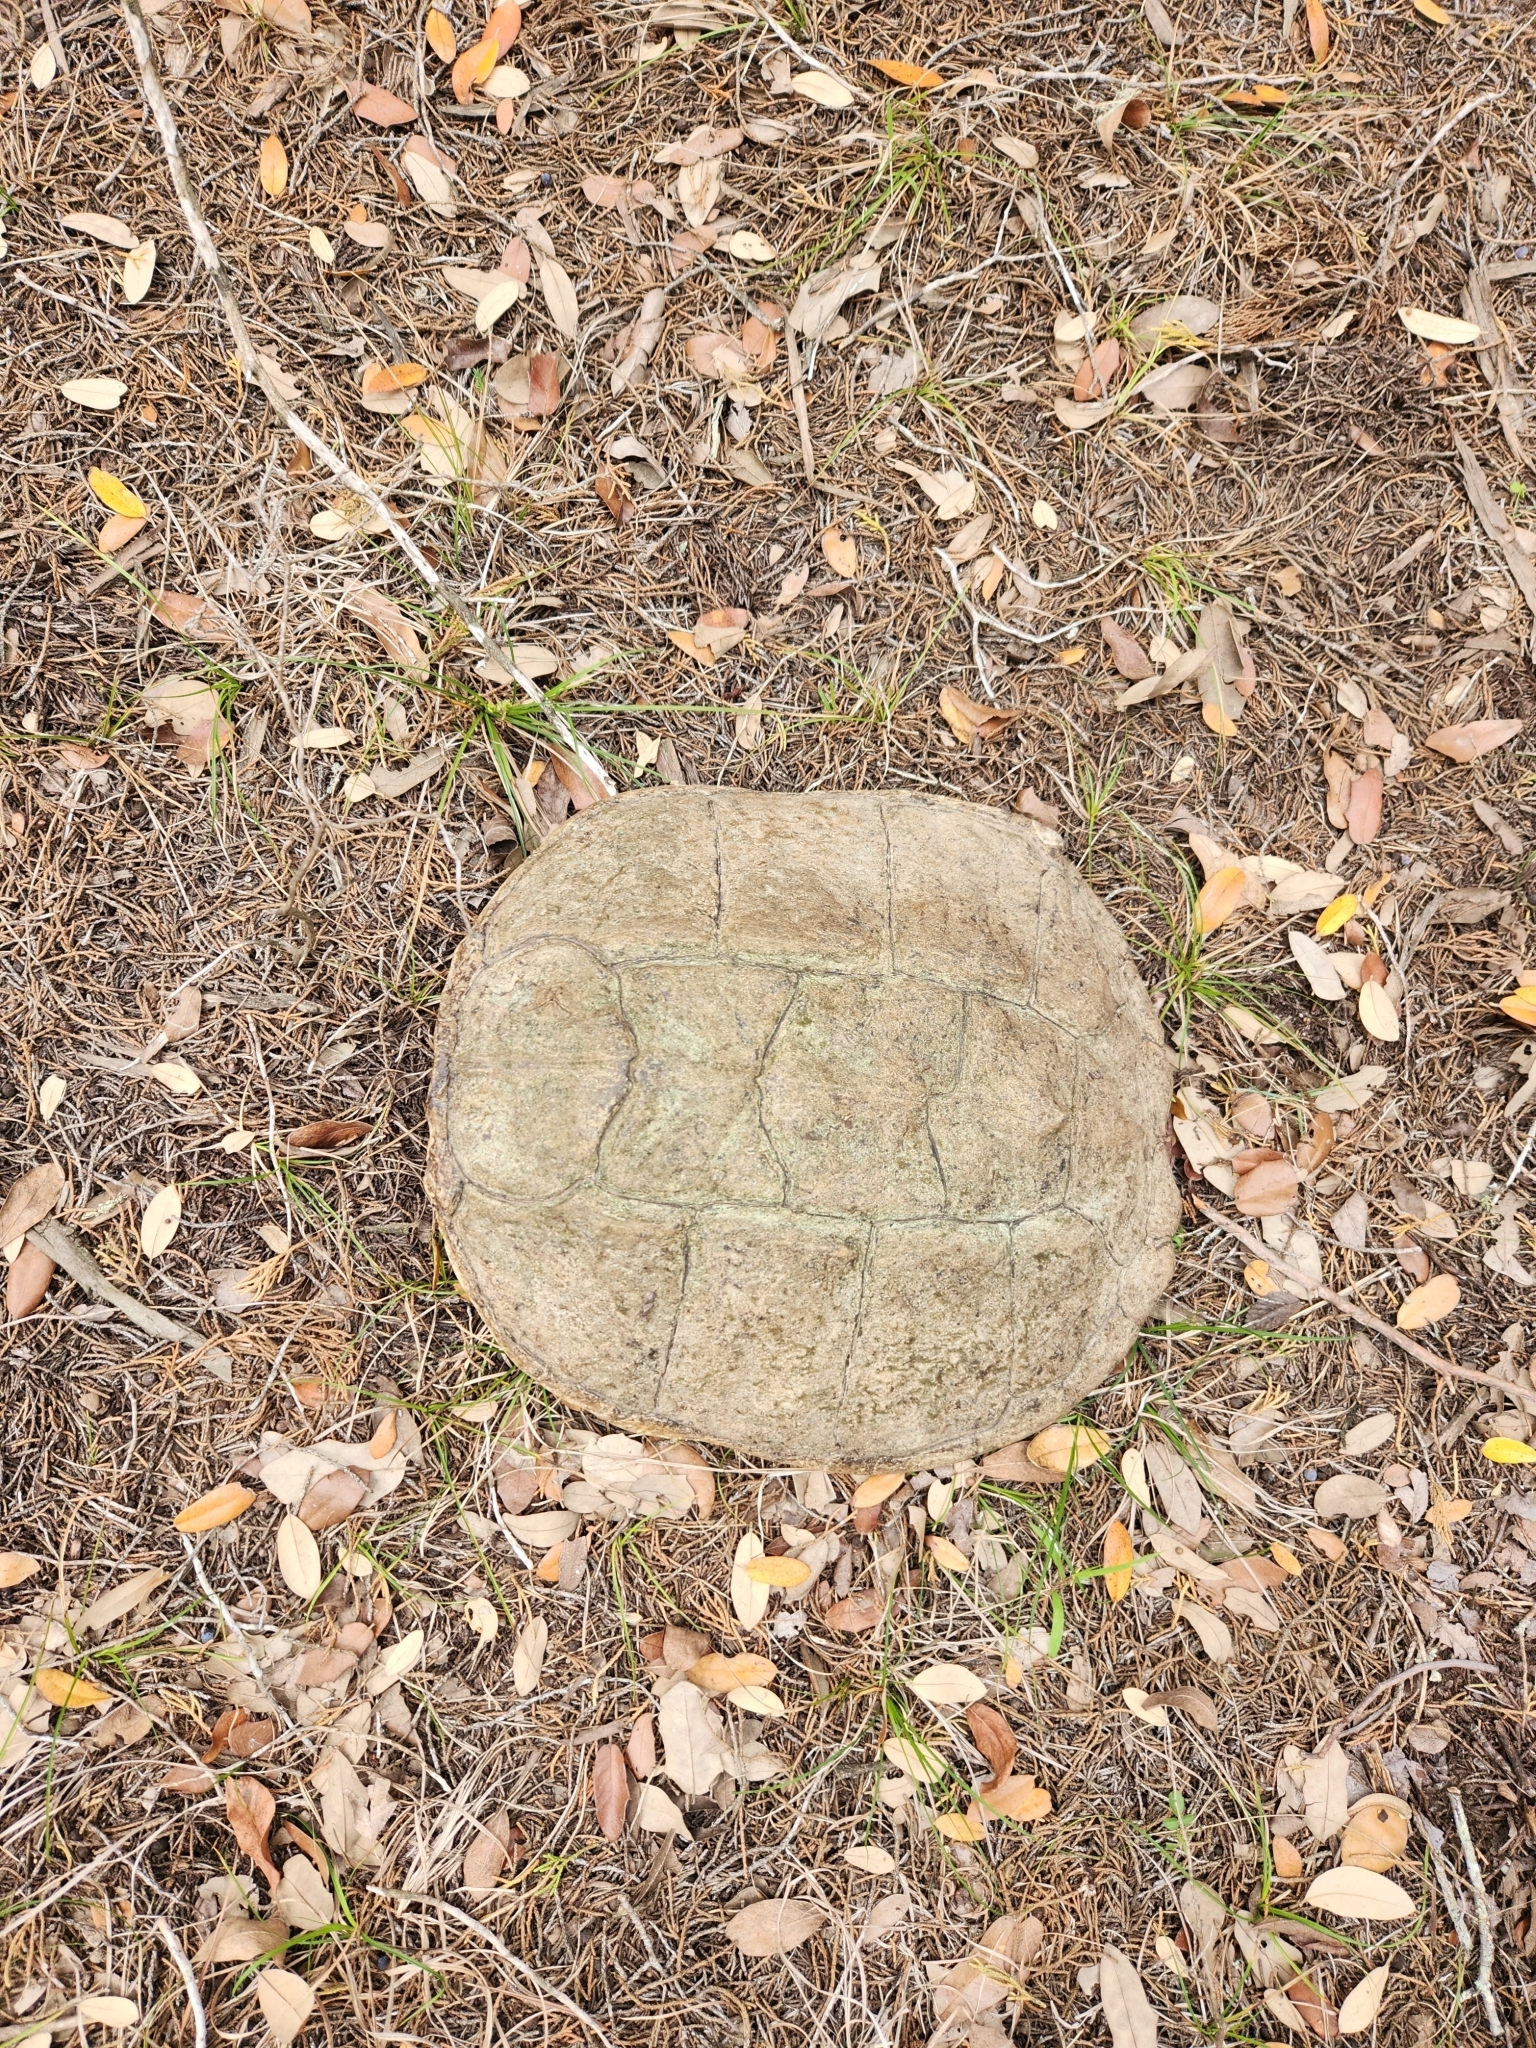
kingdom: Animalia
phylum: Chordata
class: Testudines
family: Chelydridae
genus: Chelydra
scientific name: Chelydra serpentina
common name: Common snapping turtle
